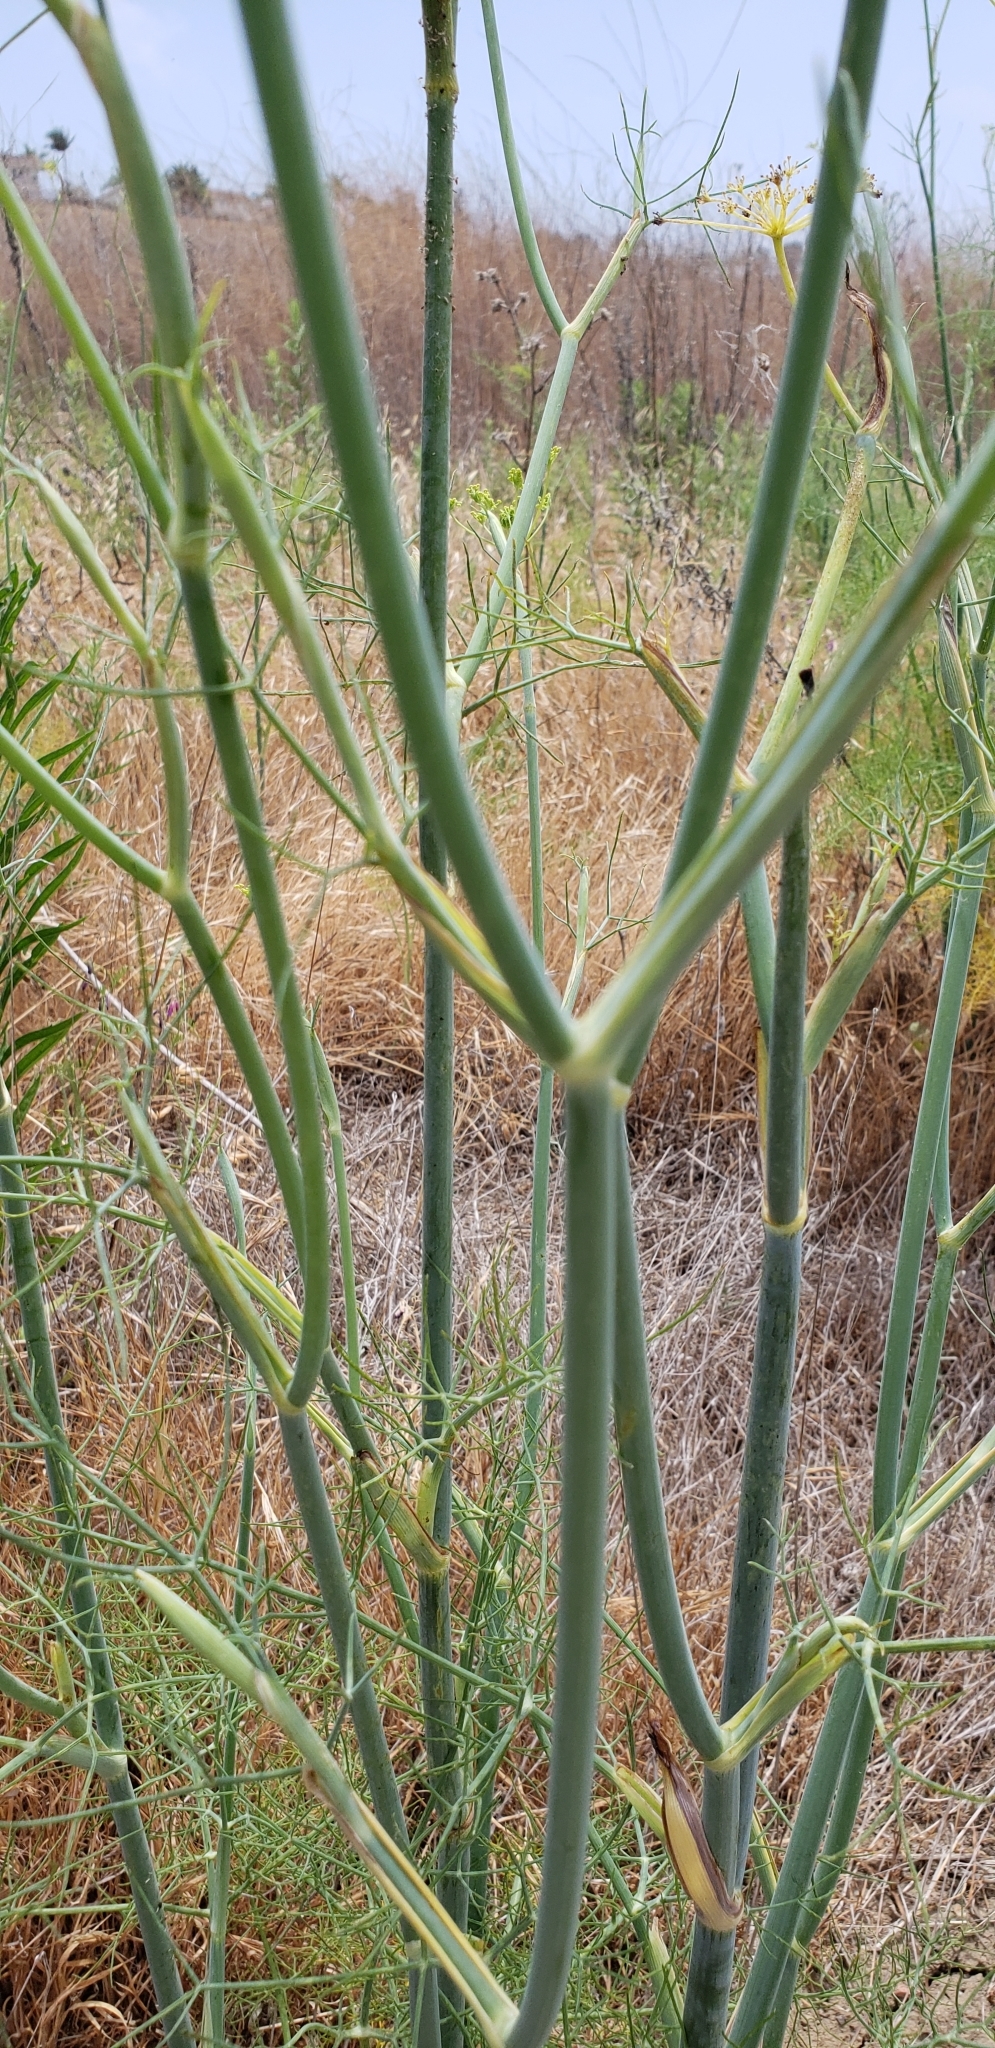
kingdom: Plantae
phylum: Tracheophyta
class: Magnoliopsida
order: Apiales
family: Apiaceae
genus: Foeniculum
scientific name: Foeniculum vulgare
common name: Fennel
